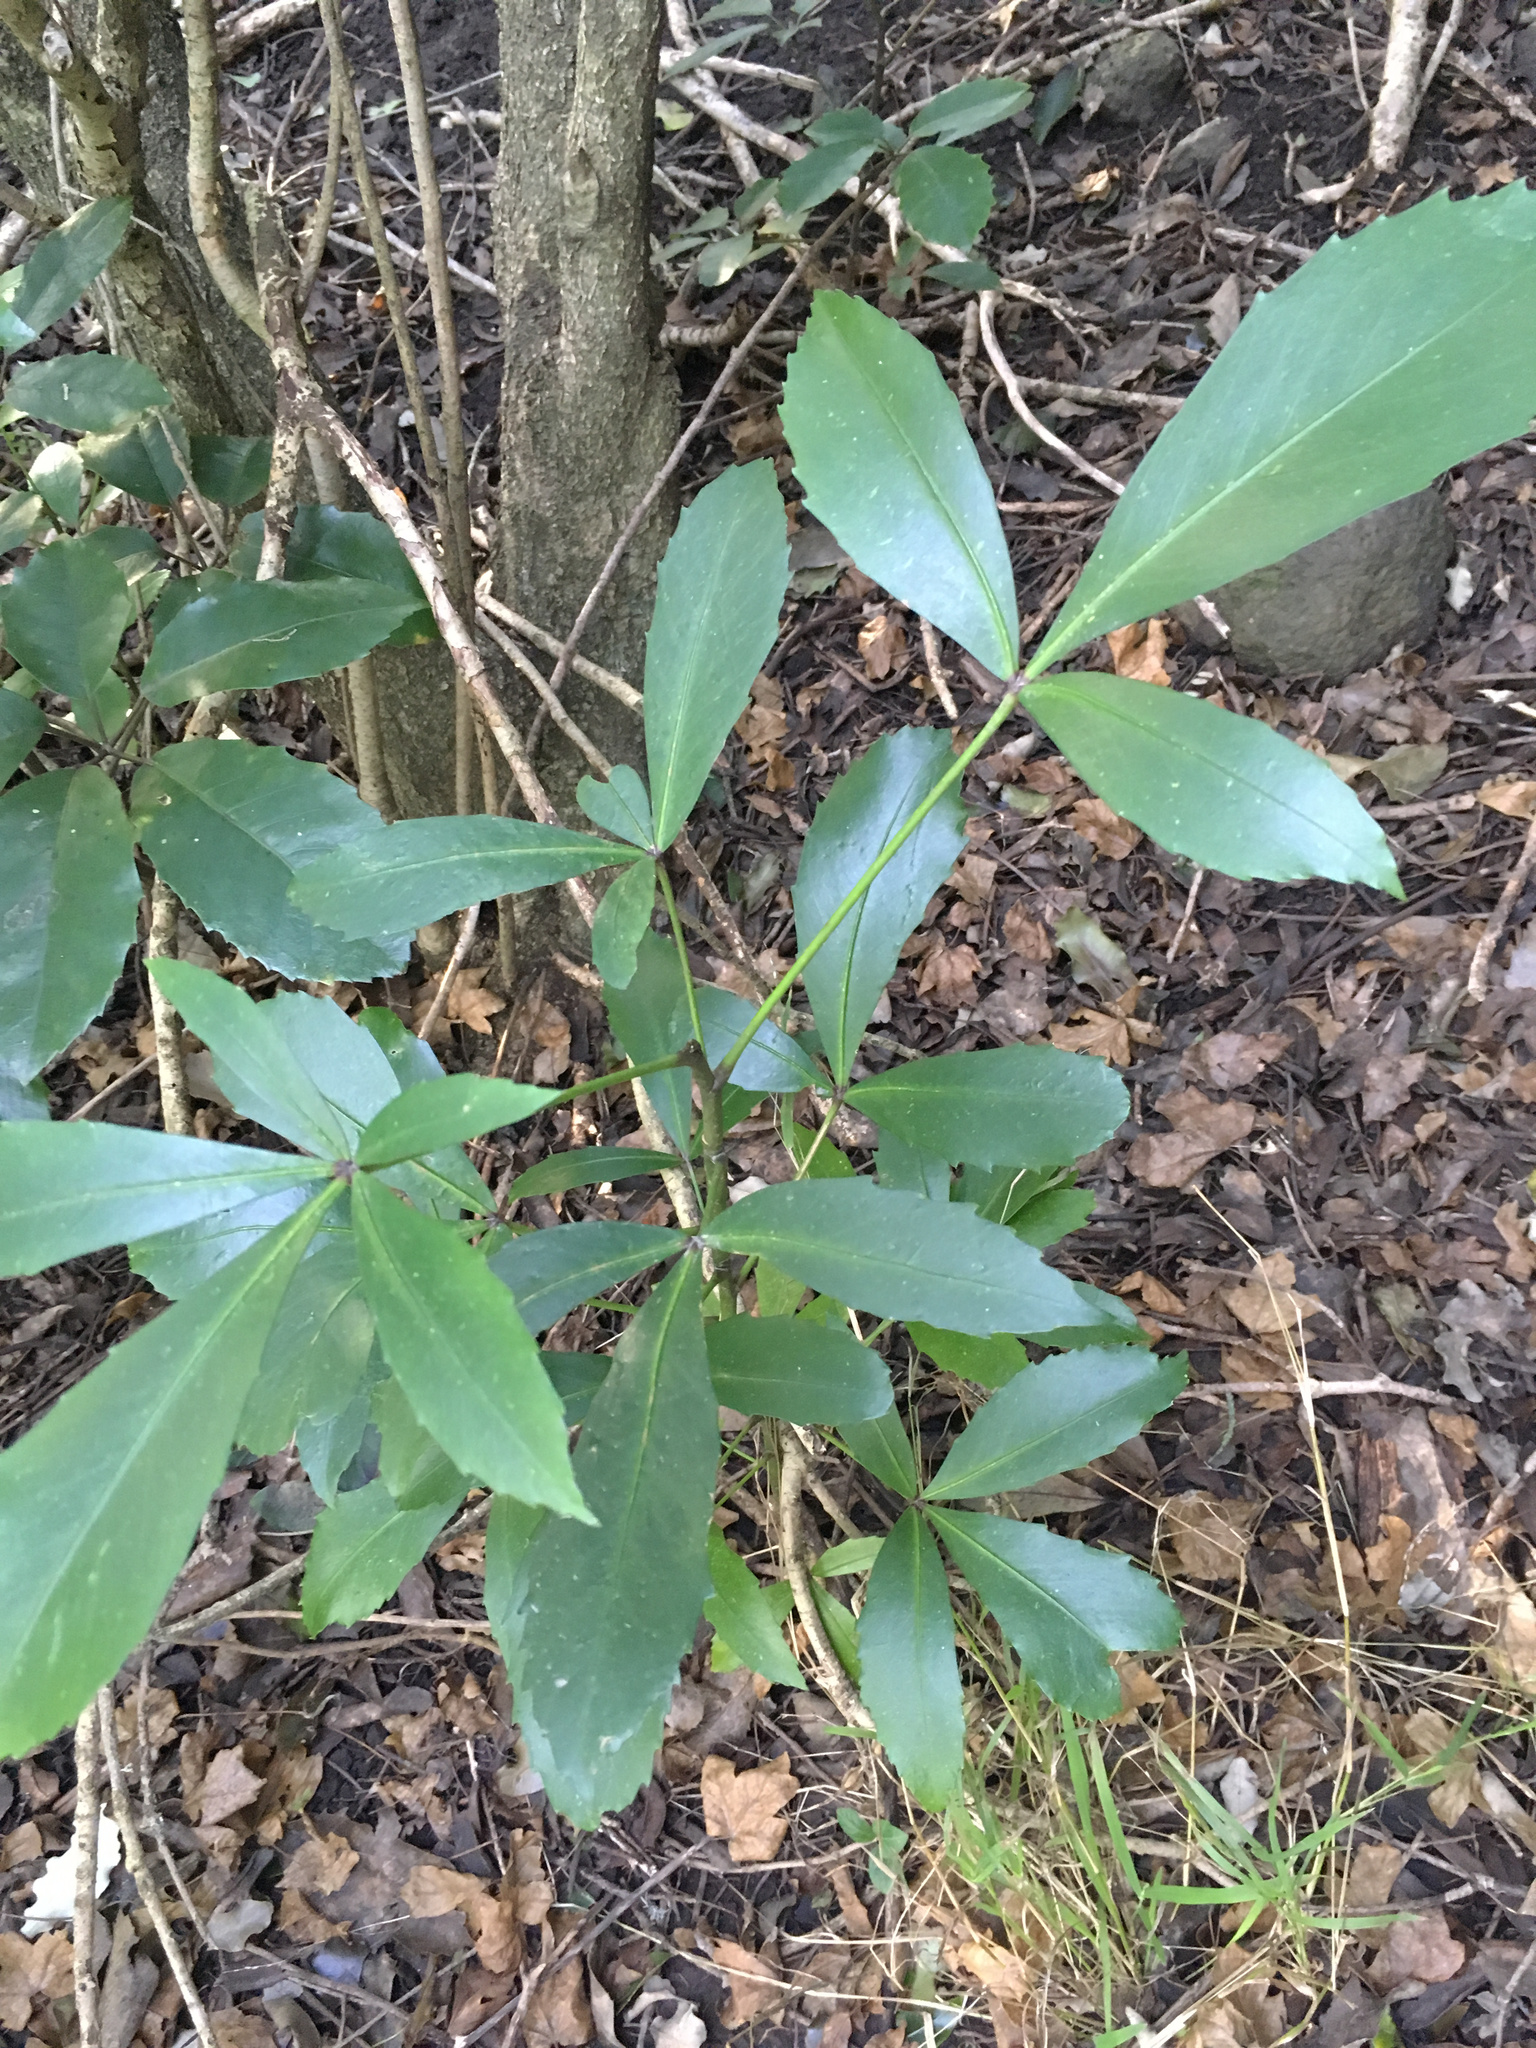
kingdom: Plantae
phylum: Tracheophyta
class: Magnoliopsida
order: Apiales
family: Araliaceae
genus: Pseudopanax
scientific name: Pseudopanax lessonii
